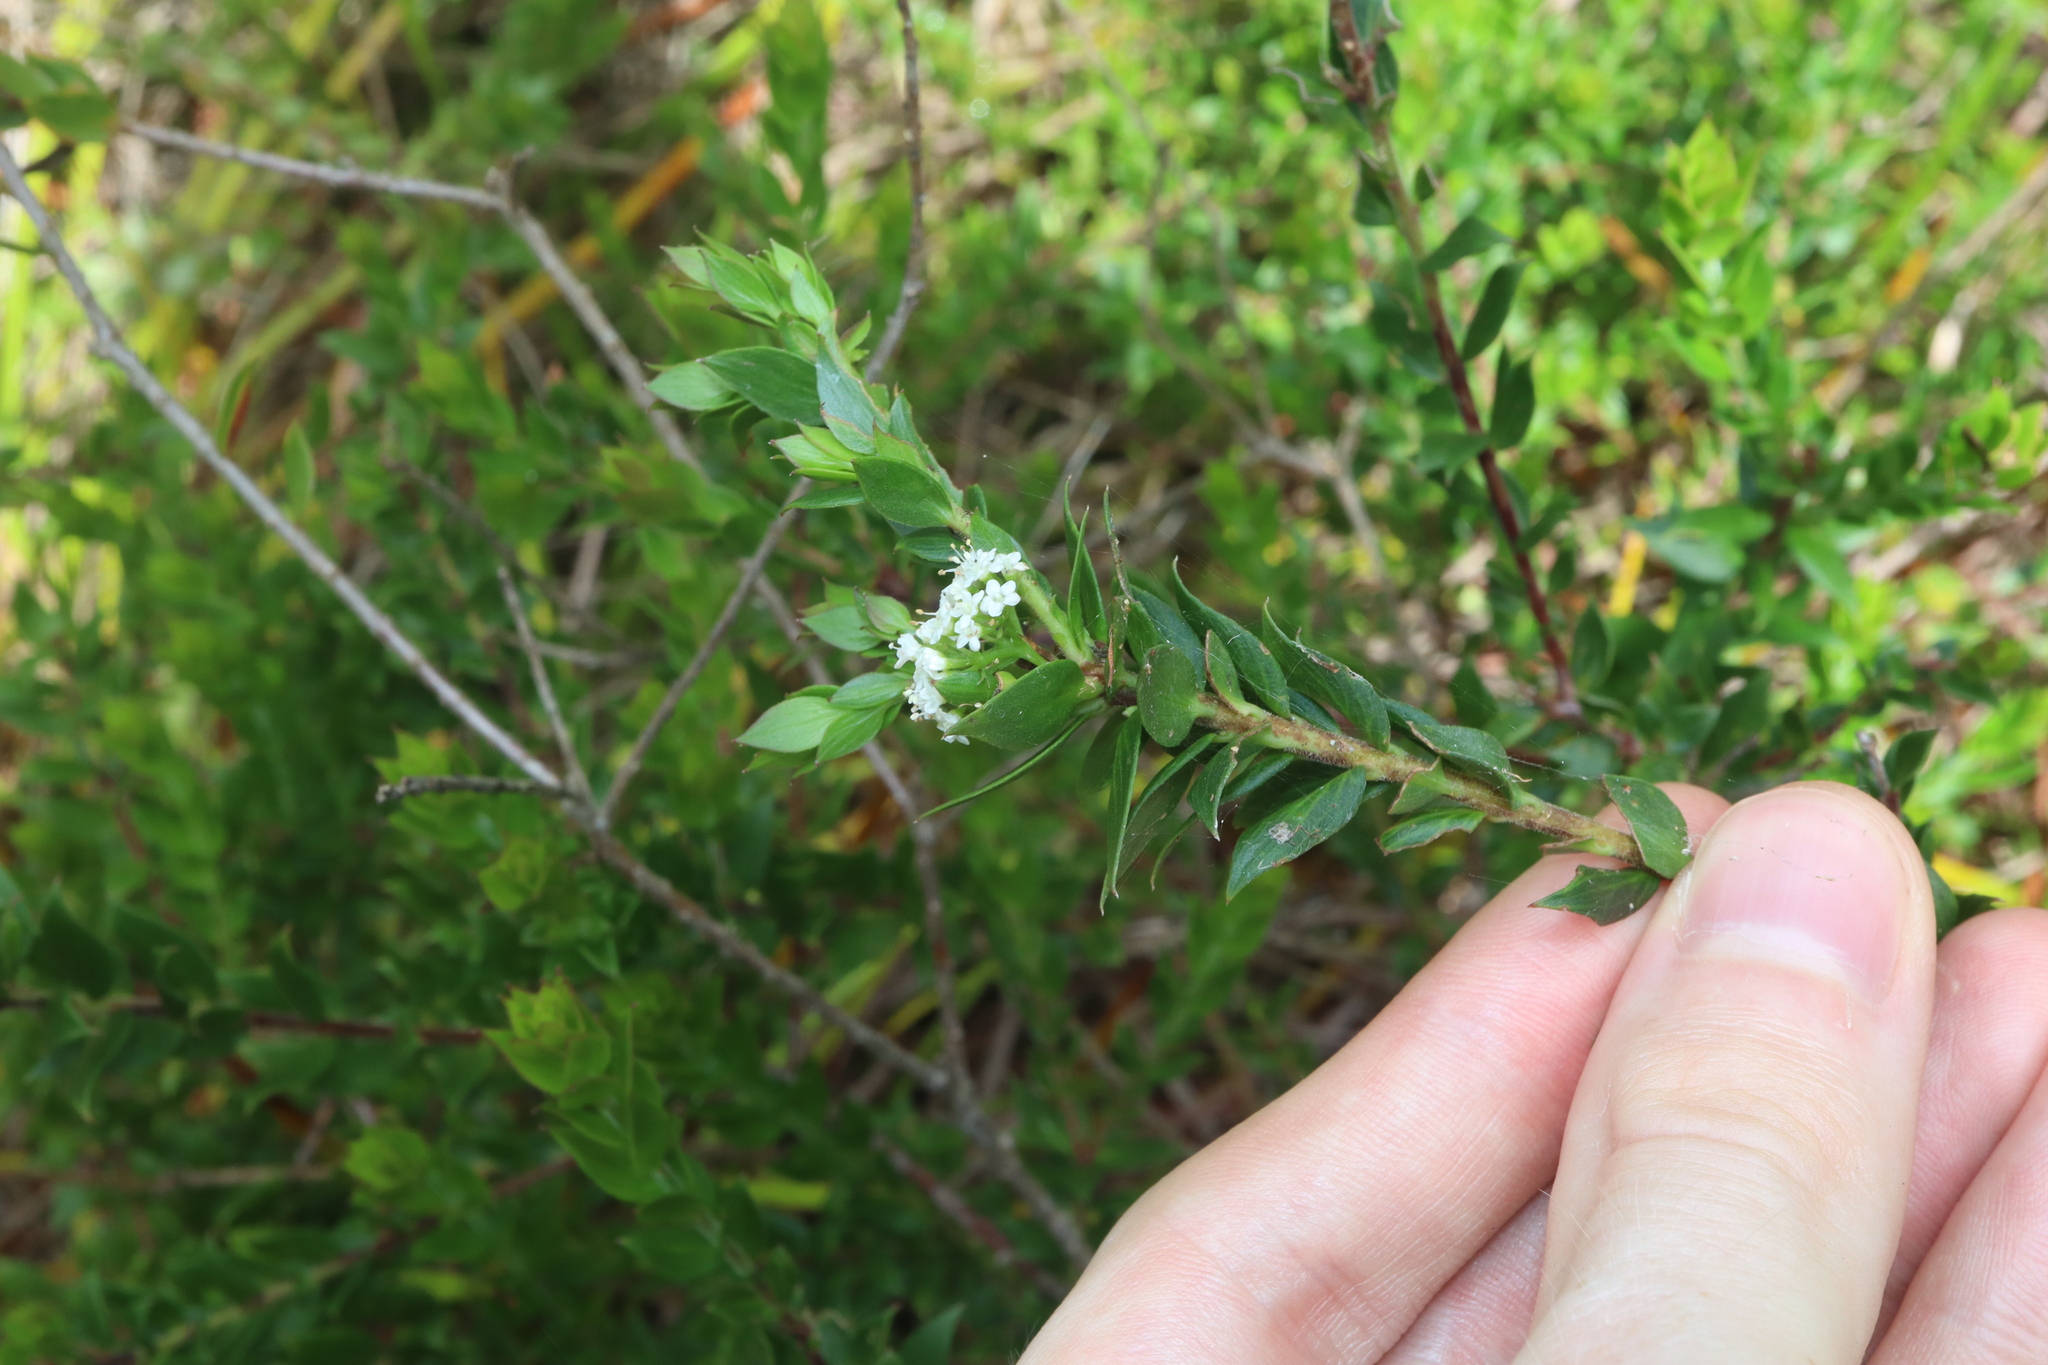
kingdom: Plantae
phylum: Tracheophyta
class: Magnoliopsida
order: Apiales
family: Apiaceae
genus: Platysace
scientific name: Platysace lanceolata
